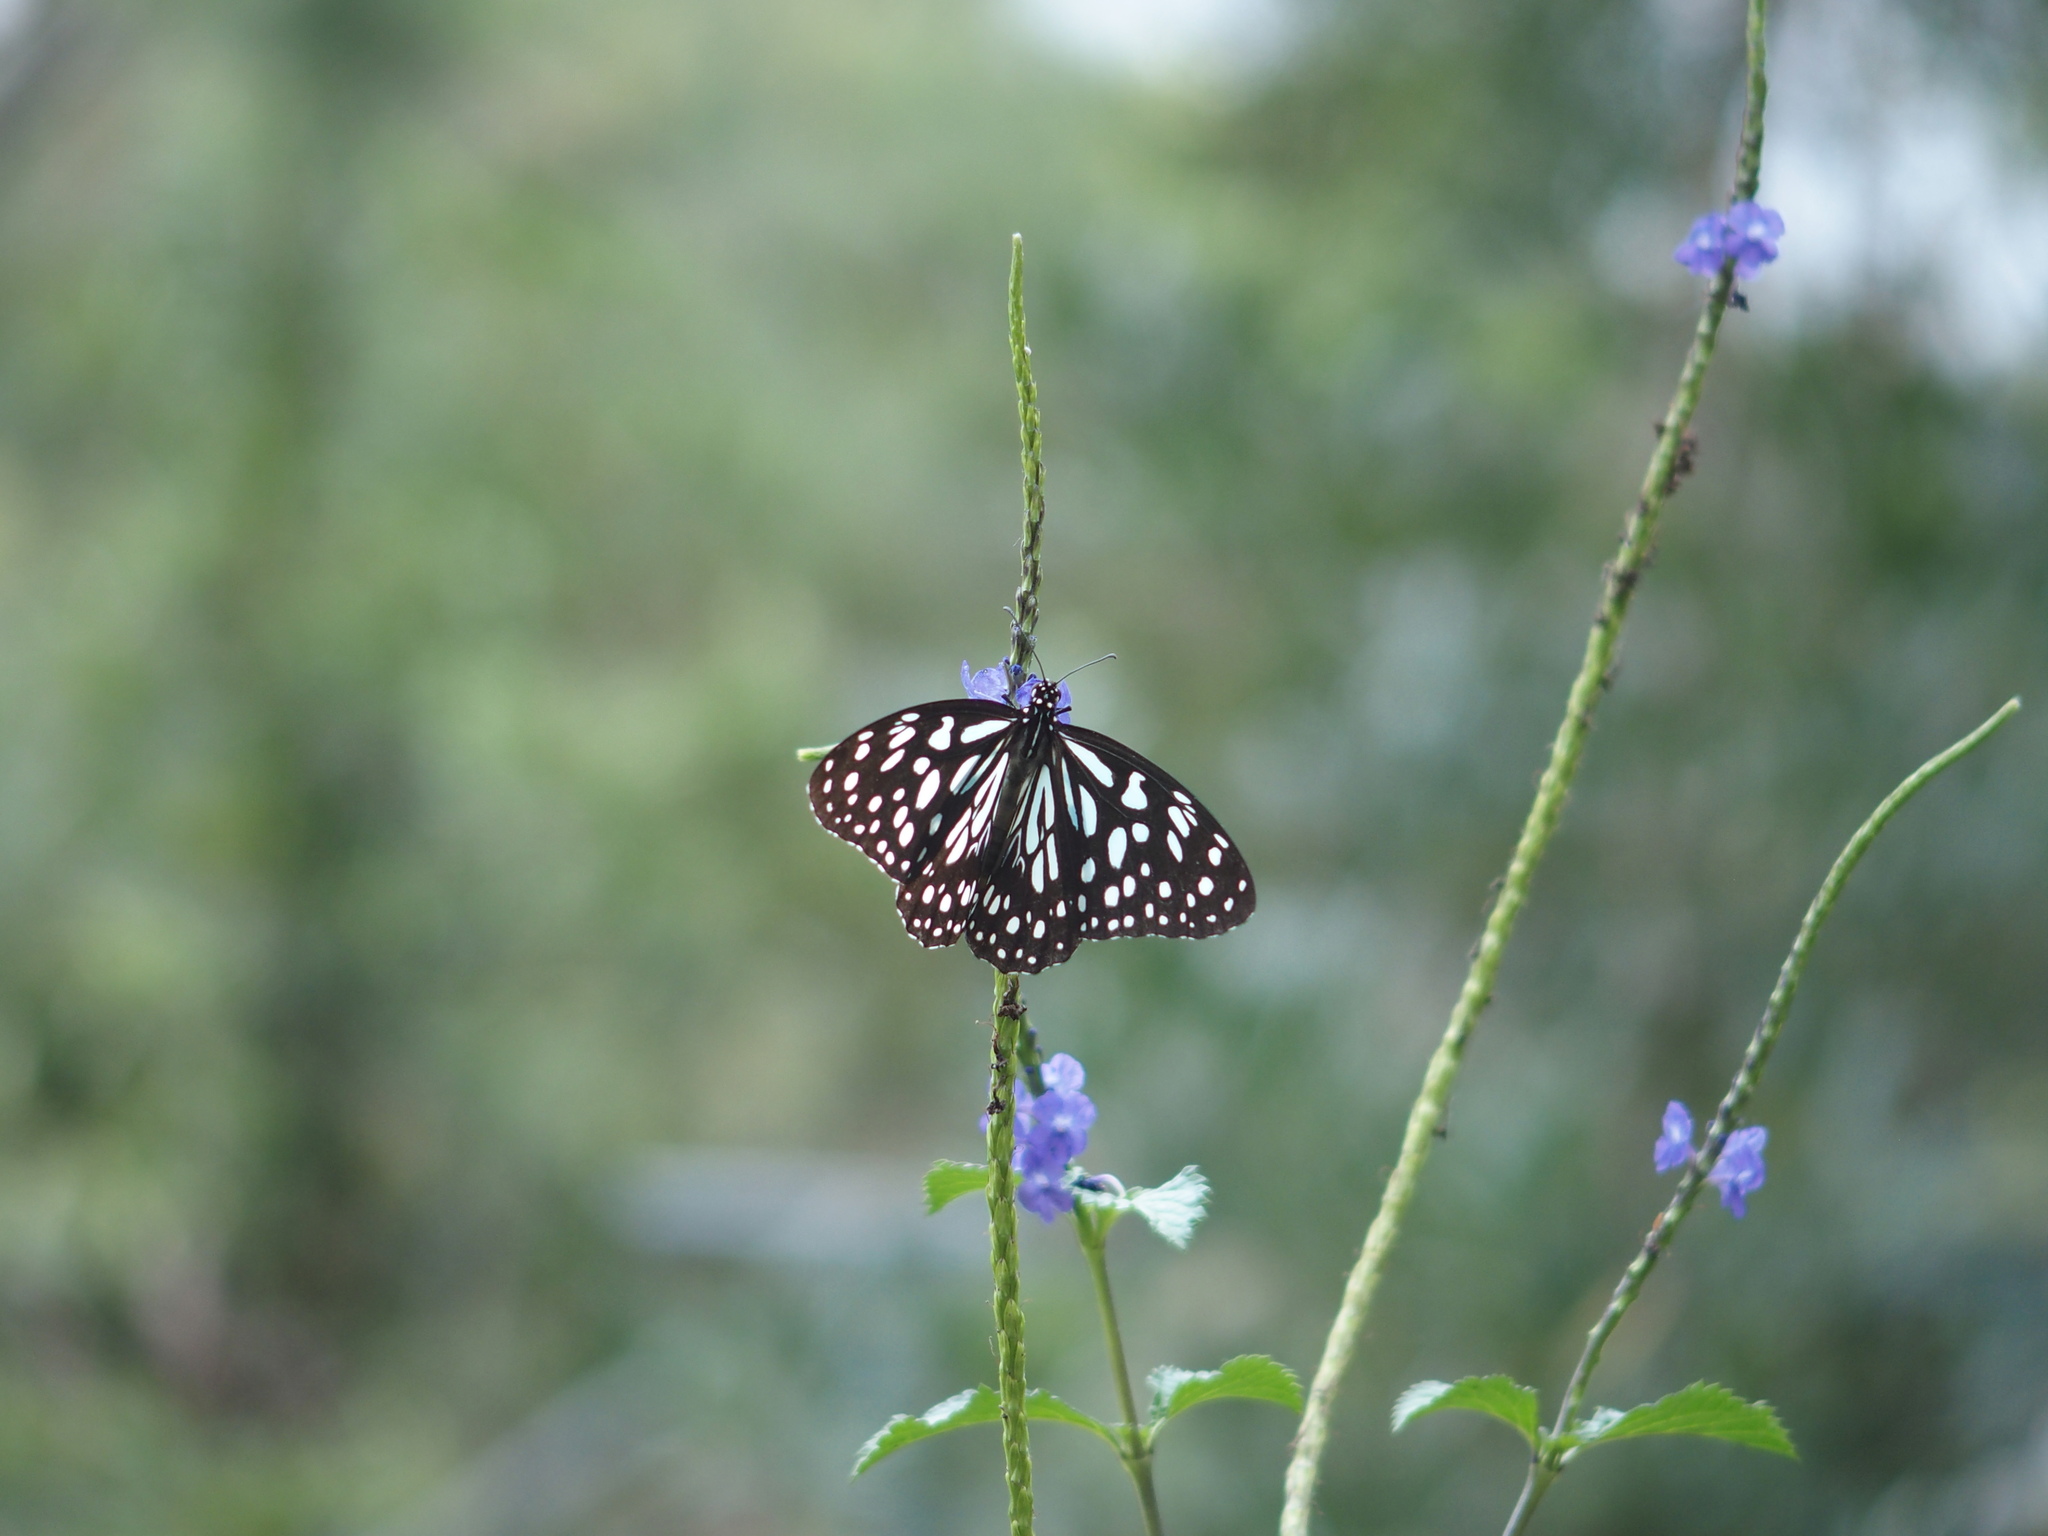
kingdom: Animalia
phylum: Arthropoda
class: Insecta
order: Lepidoptera
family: Nymphalidae
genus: Tirumala
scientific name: Tirumala limniace
